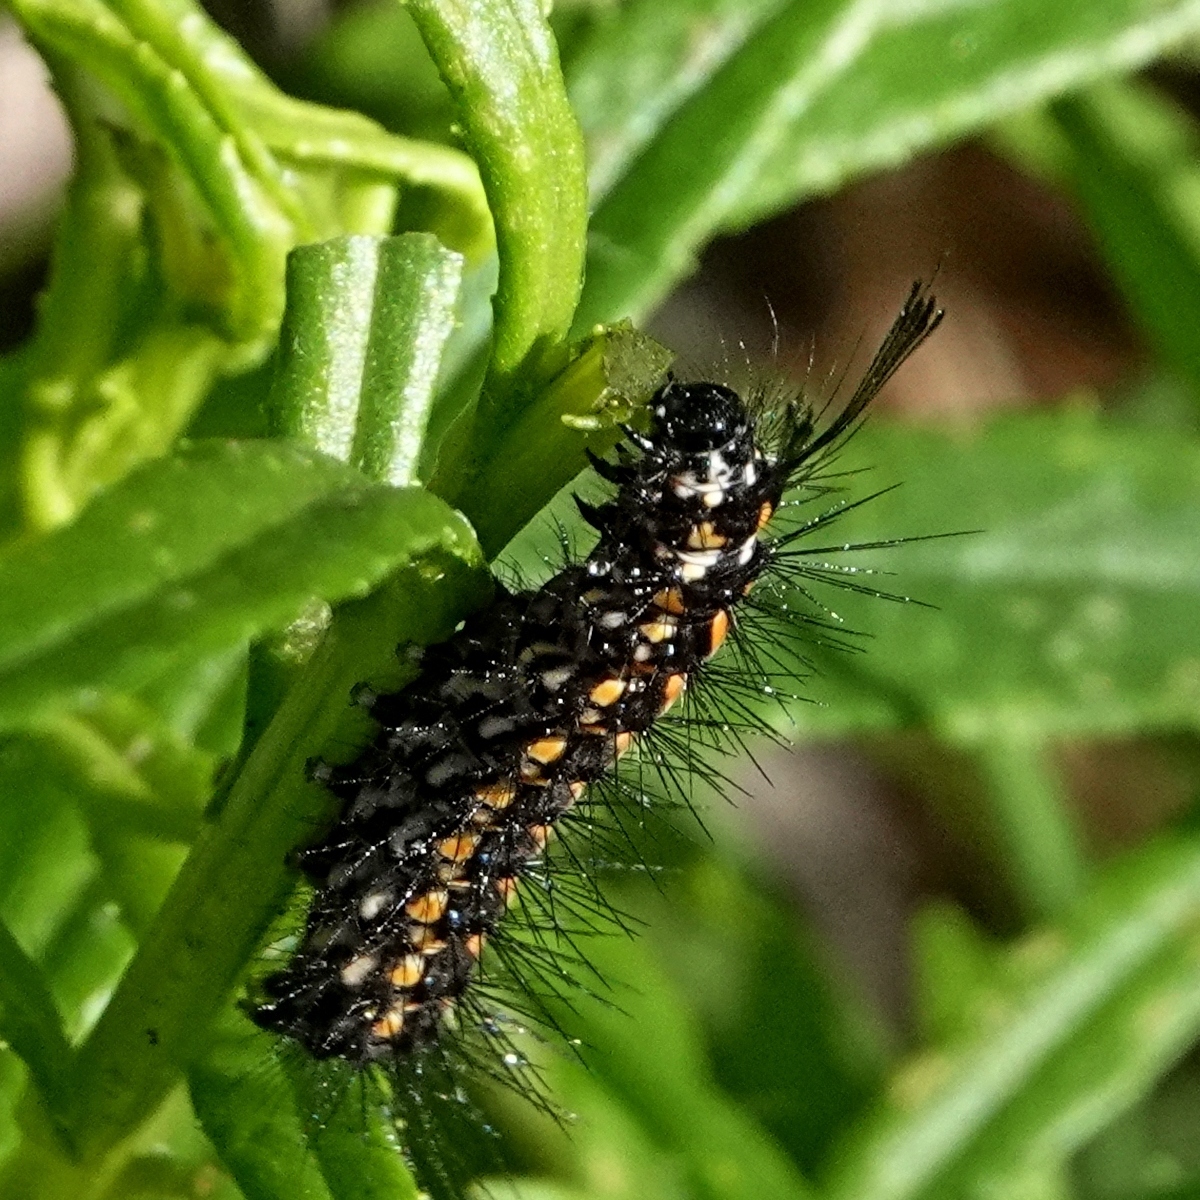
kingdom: Animalia
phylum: Arthropoda
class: Insecta
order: Lepidoptera
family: Erebidae
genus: Nyctemera
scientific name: Nyctemera amicus
